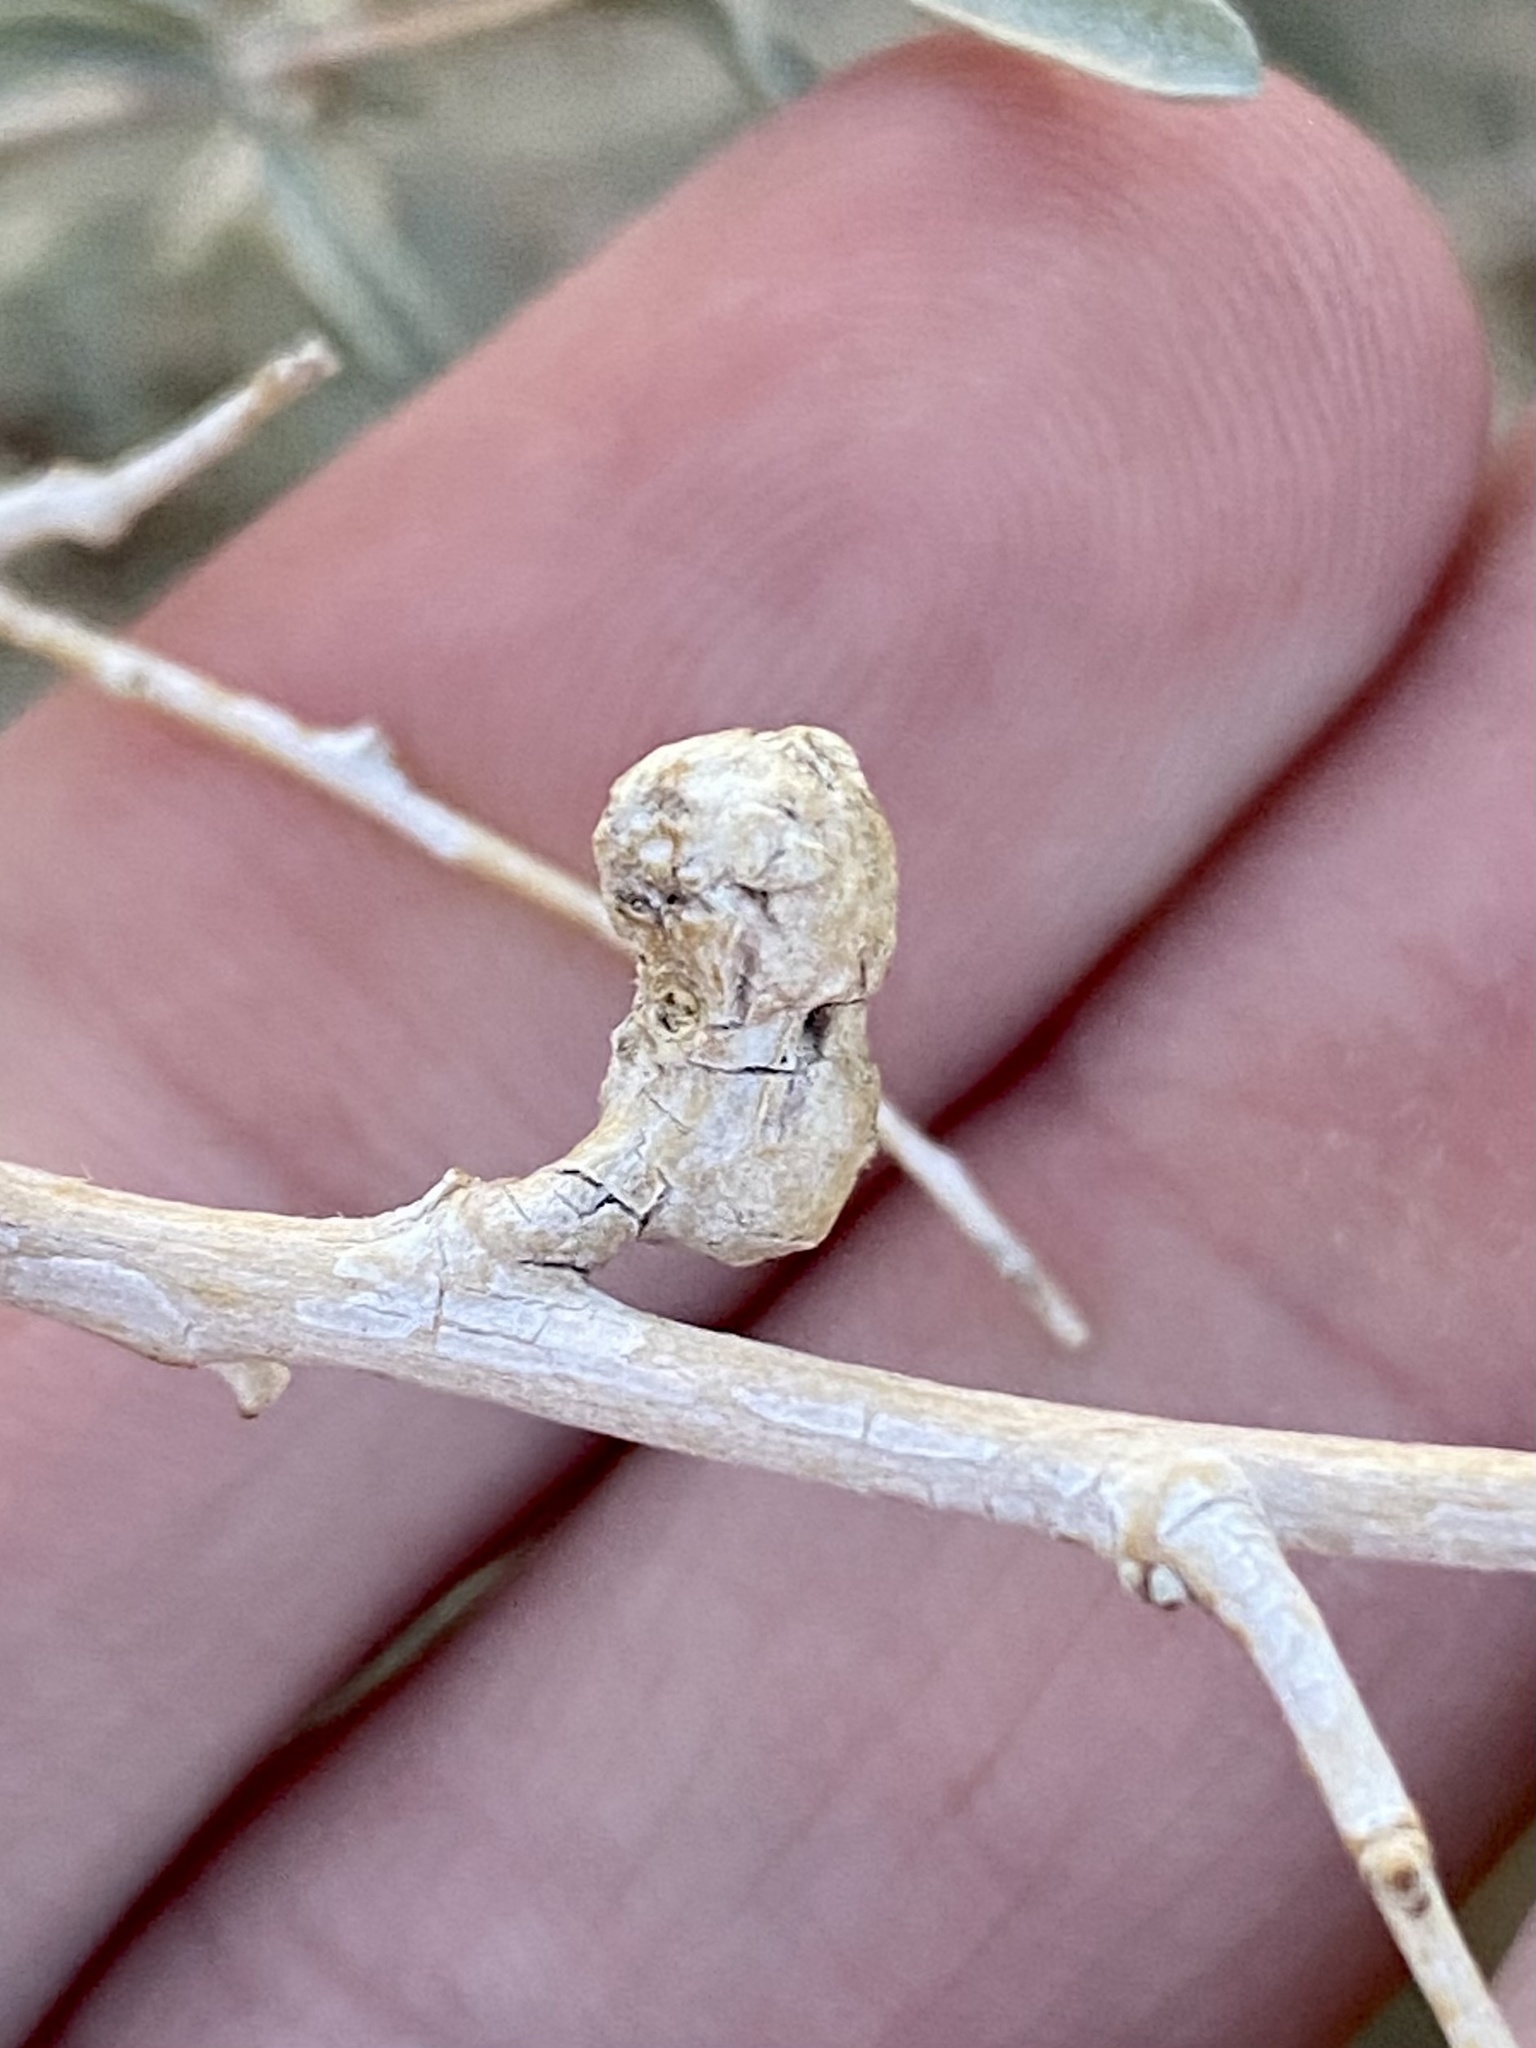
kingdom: Animalia
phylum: Arthropoda
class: Insecta
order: Diptera
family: Cecidomyiidae
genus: Asphondylia
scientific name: Asphondylia atriplicis
